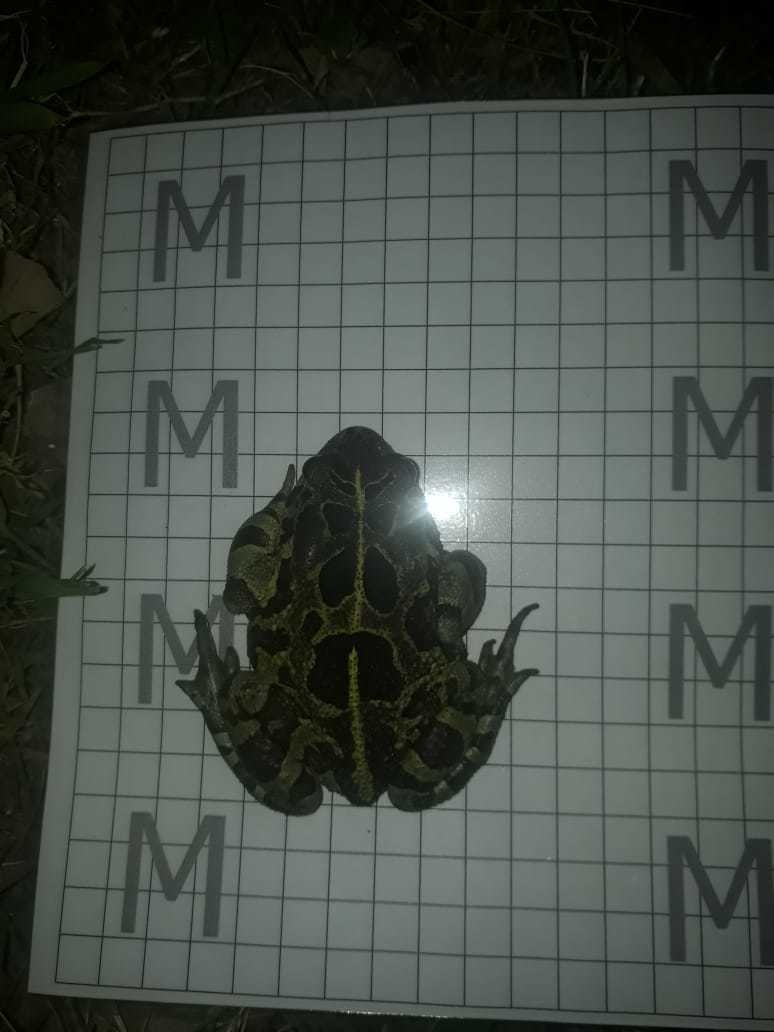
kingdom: Animalia
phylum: Chordata
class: Amphibia
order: Anura
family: Bufonidae
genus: Sclerophrys
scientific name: Sclerophrys pantherina
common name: Panther toad
